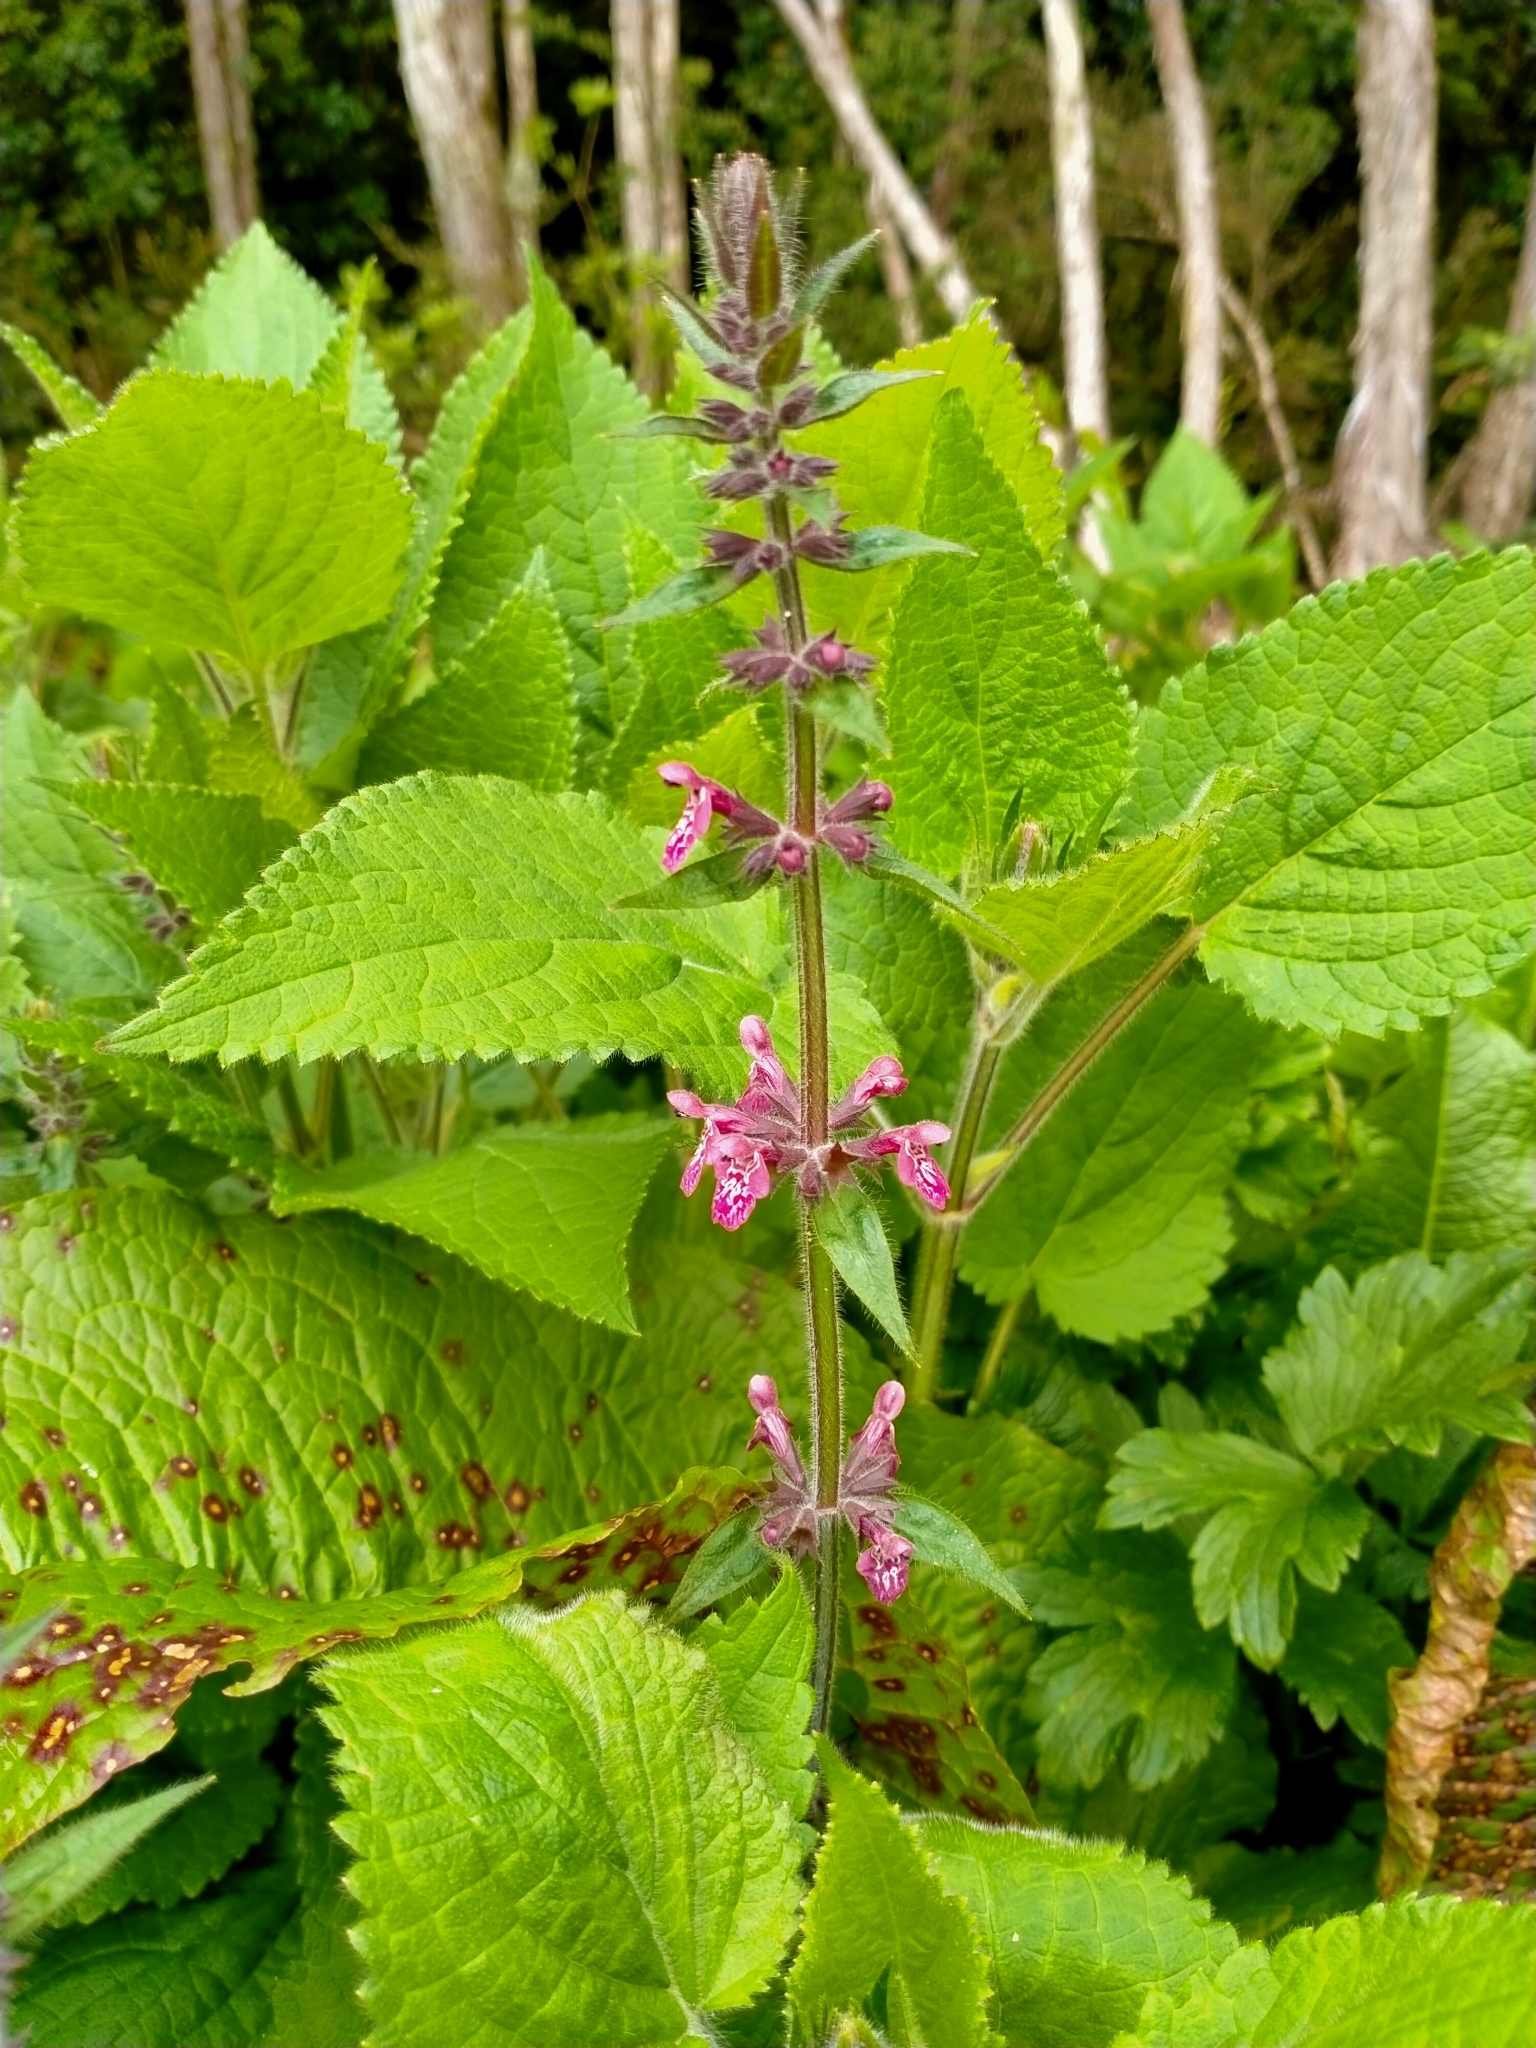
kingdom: Plantae
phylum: Tracheophyta
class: Magnoliopsida
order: Lamiales
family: Lamiaceae
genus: Stachys
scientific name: Stachys sylvatica
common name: Hedge woundwort
